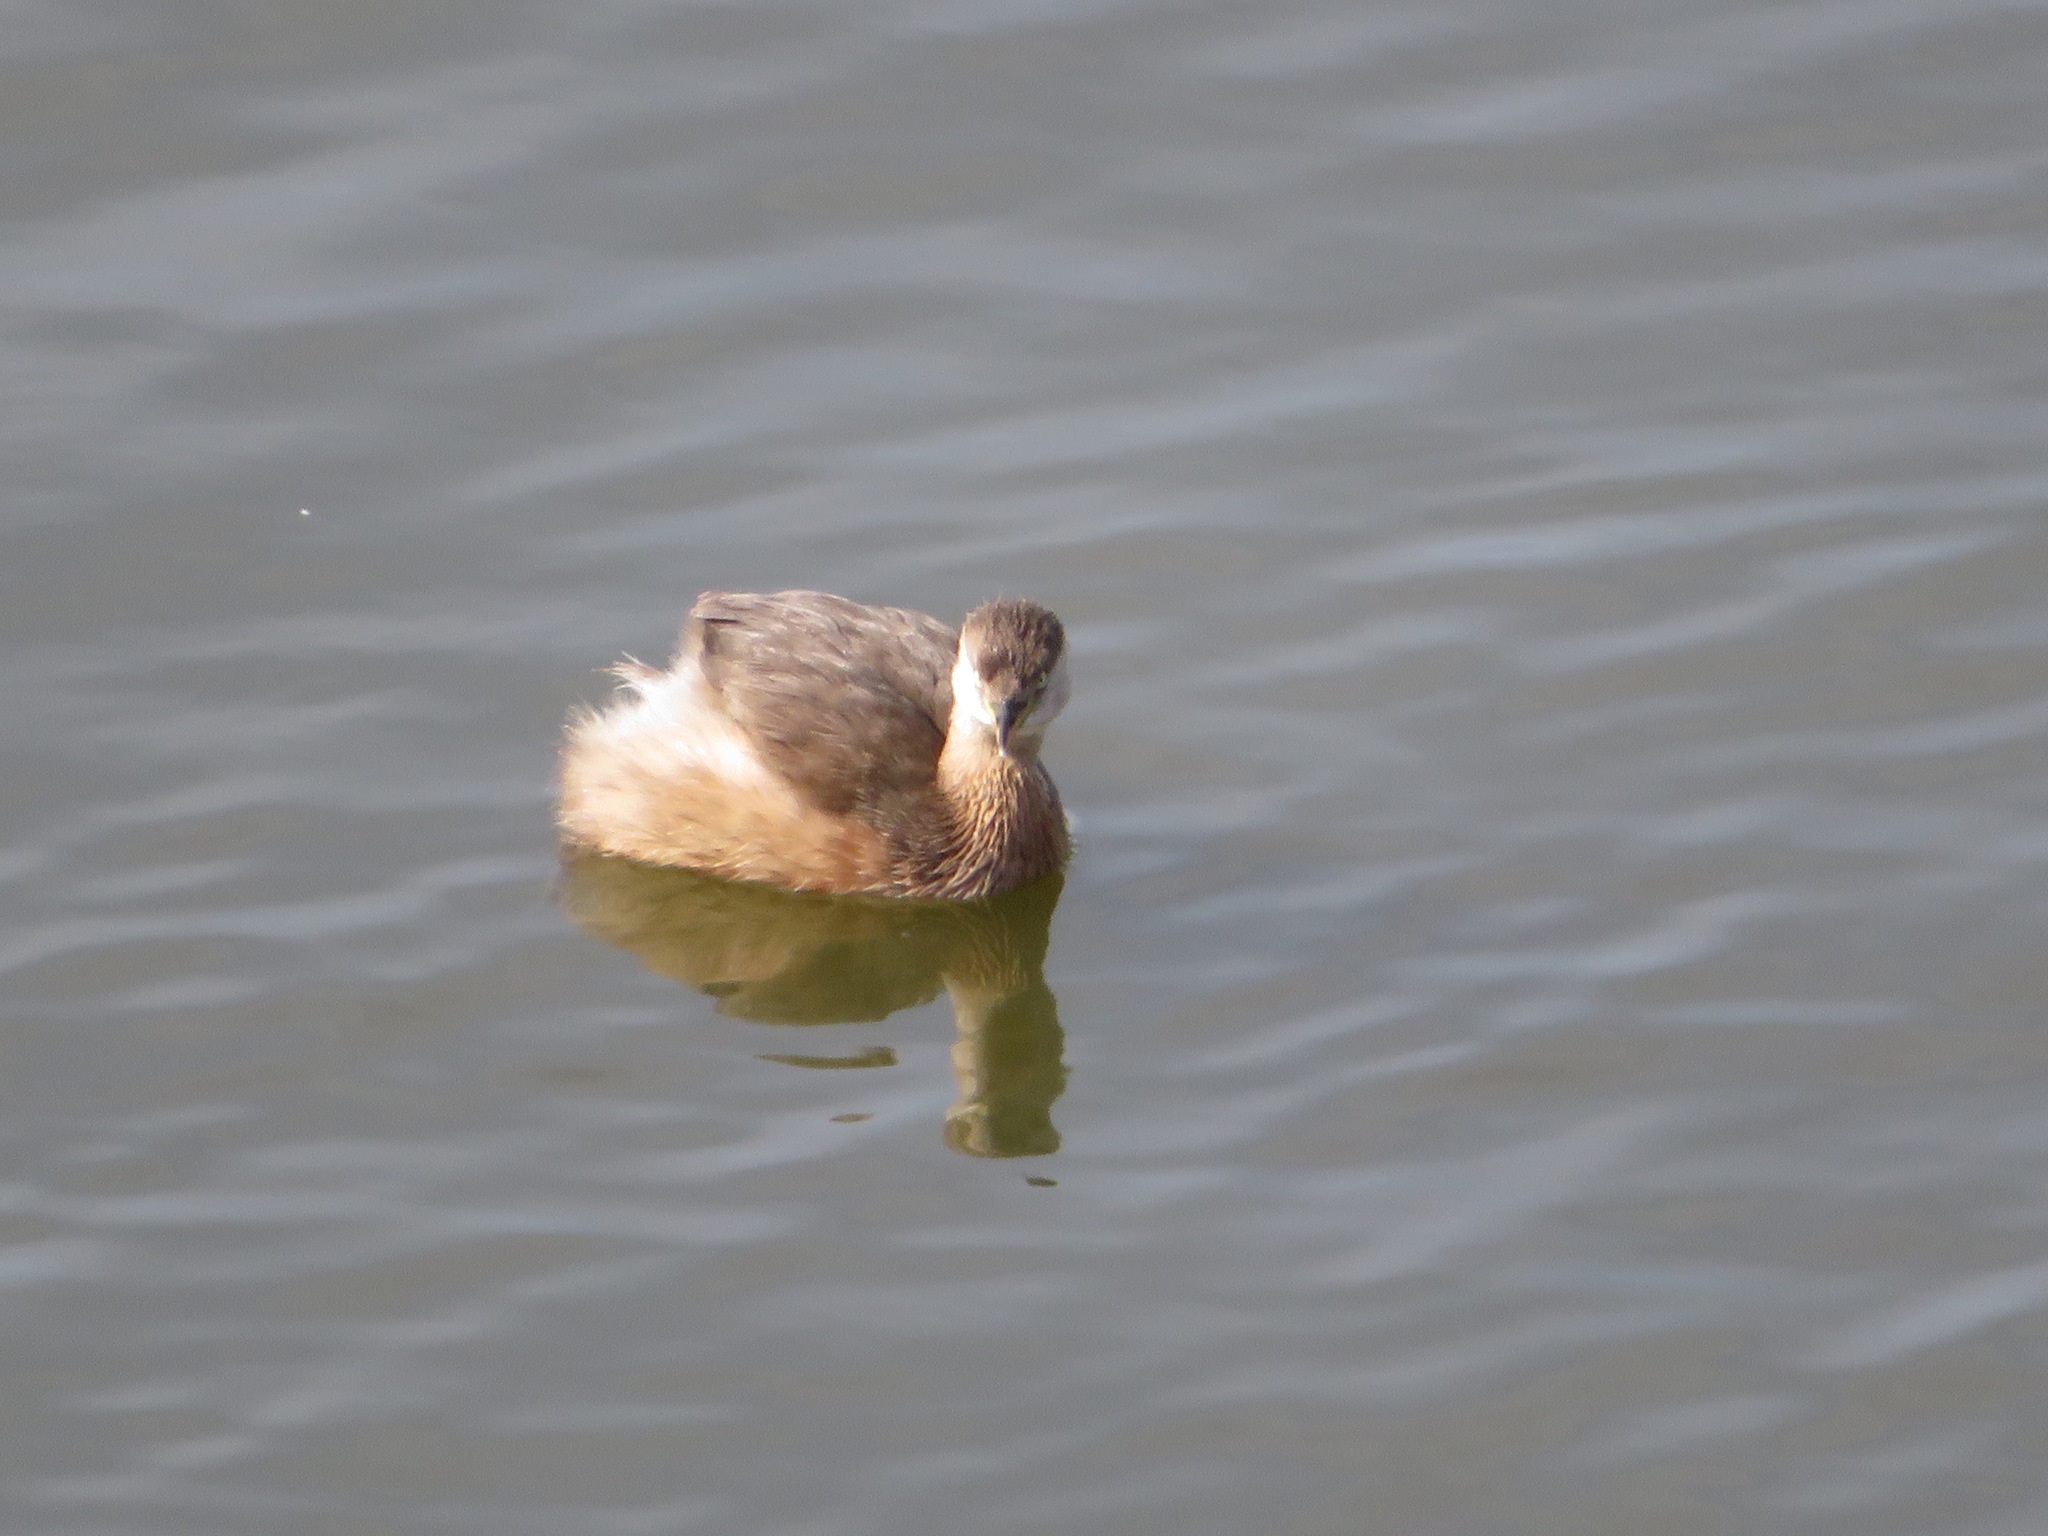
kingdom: Animalia
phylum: Chordata
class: Aves
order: Podicipediformes
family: Podicipedidae
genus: Tachybaptus
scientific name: Tachybaptus ruficollis
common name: Little grebe
